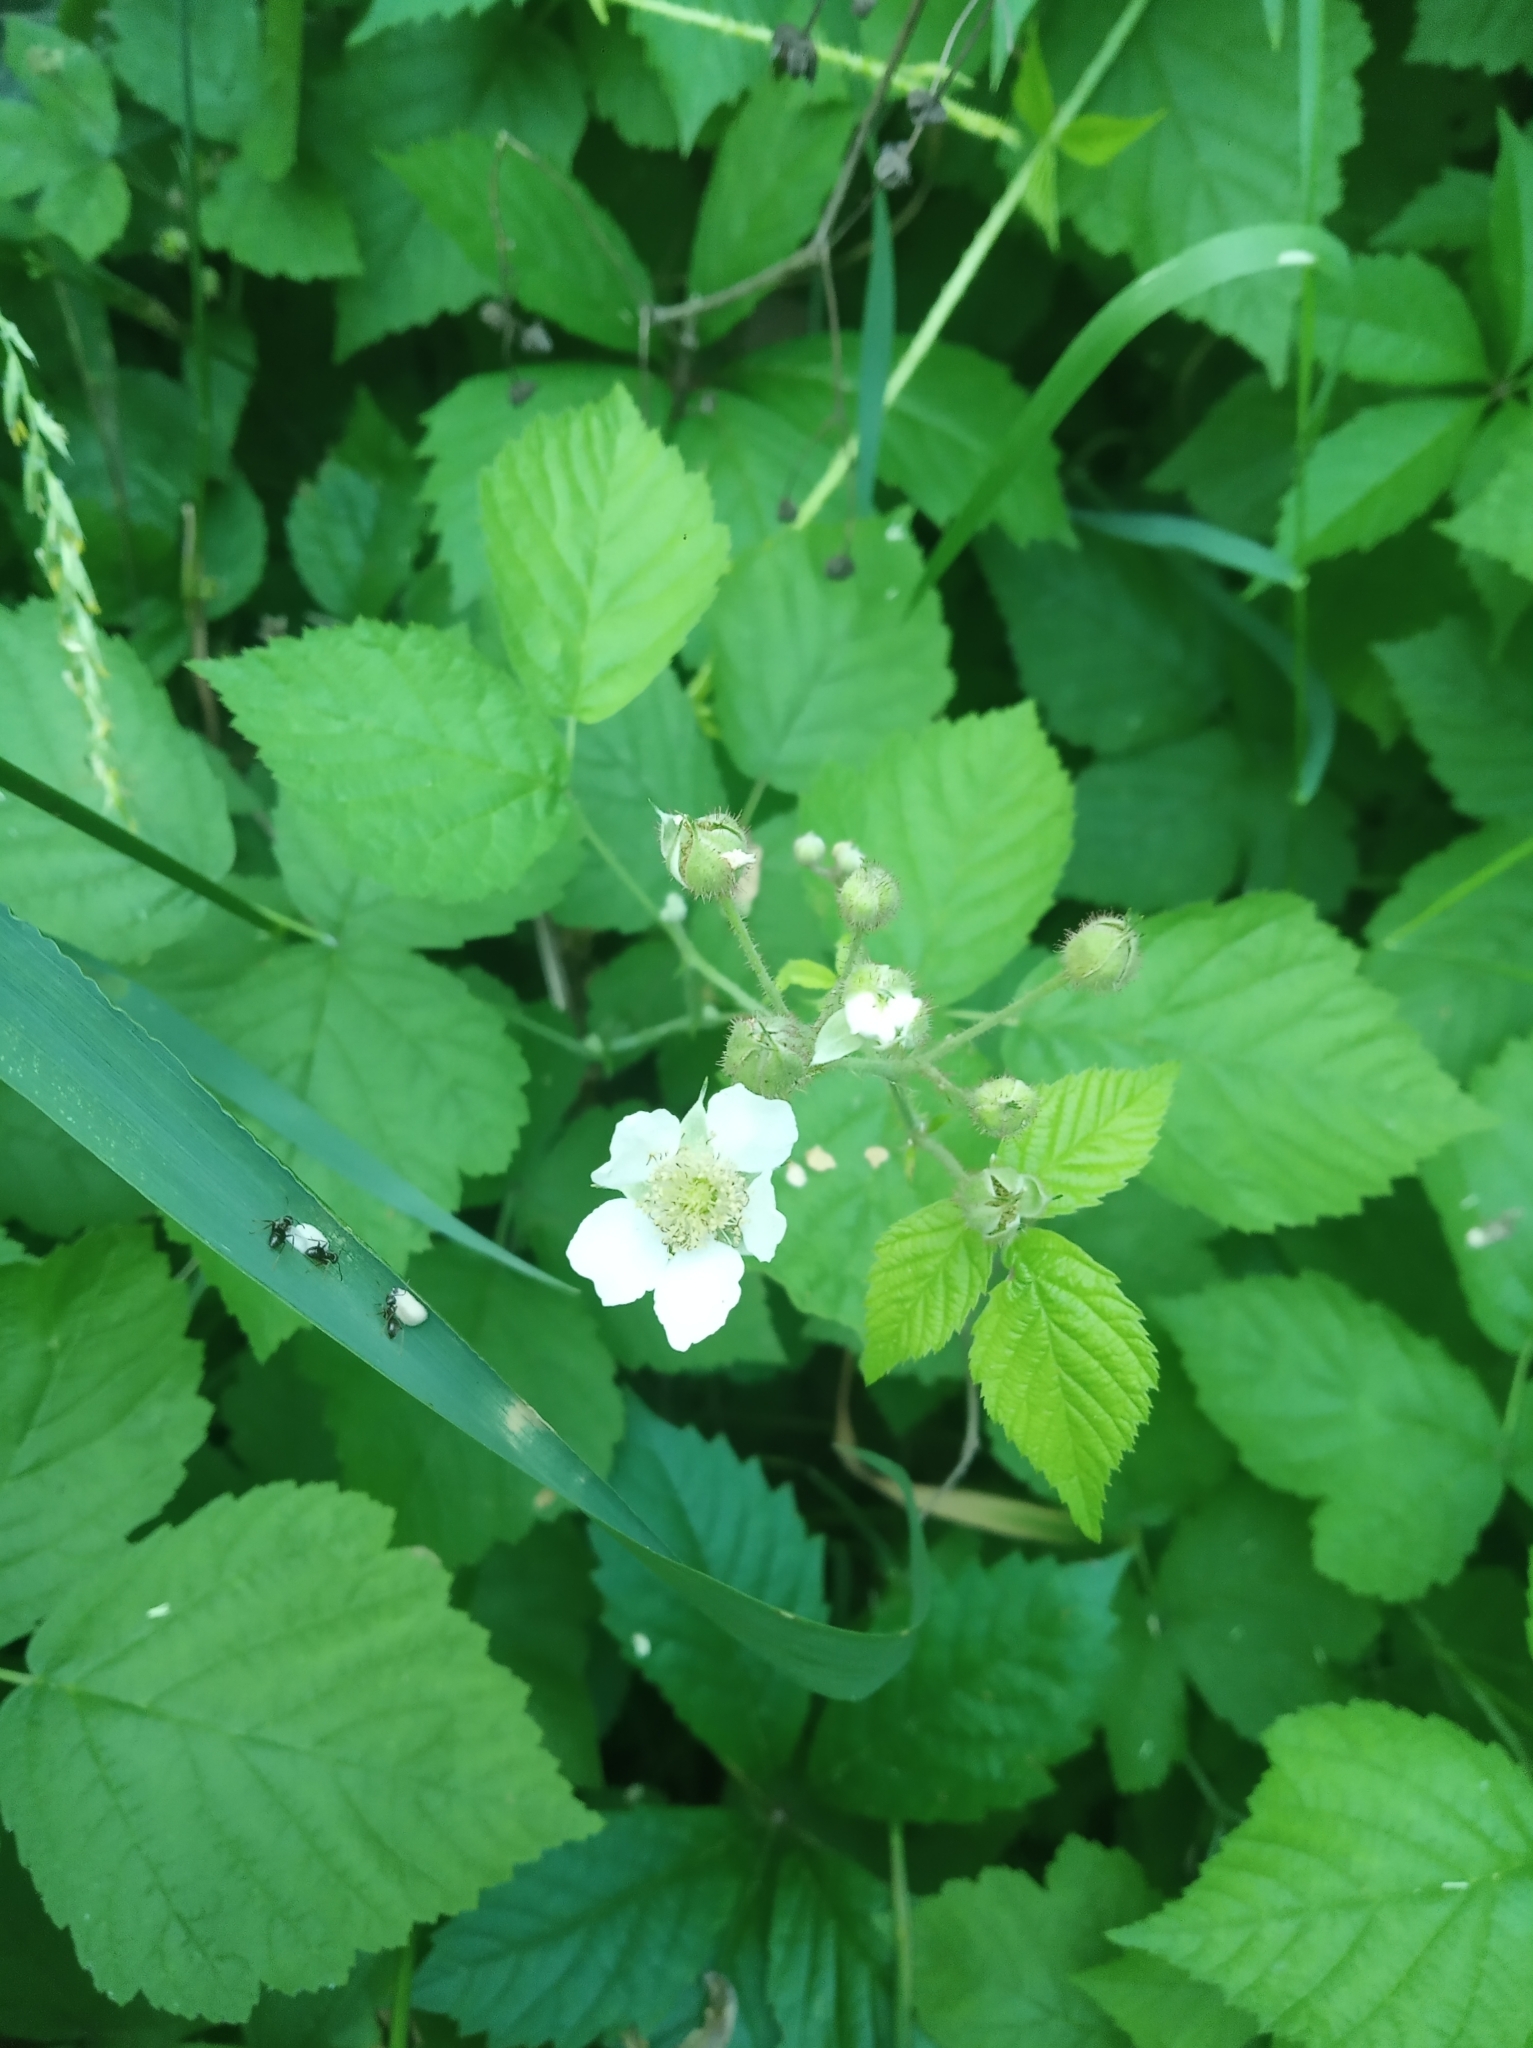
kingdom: Plantae
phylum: Tracheophyta
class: Magnoliopsida
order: Rosales
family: Rosaceae
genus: Rubus
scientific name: Rubus caesius
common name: Dewberry
